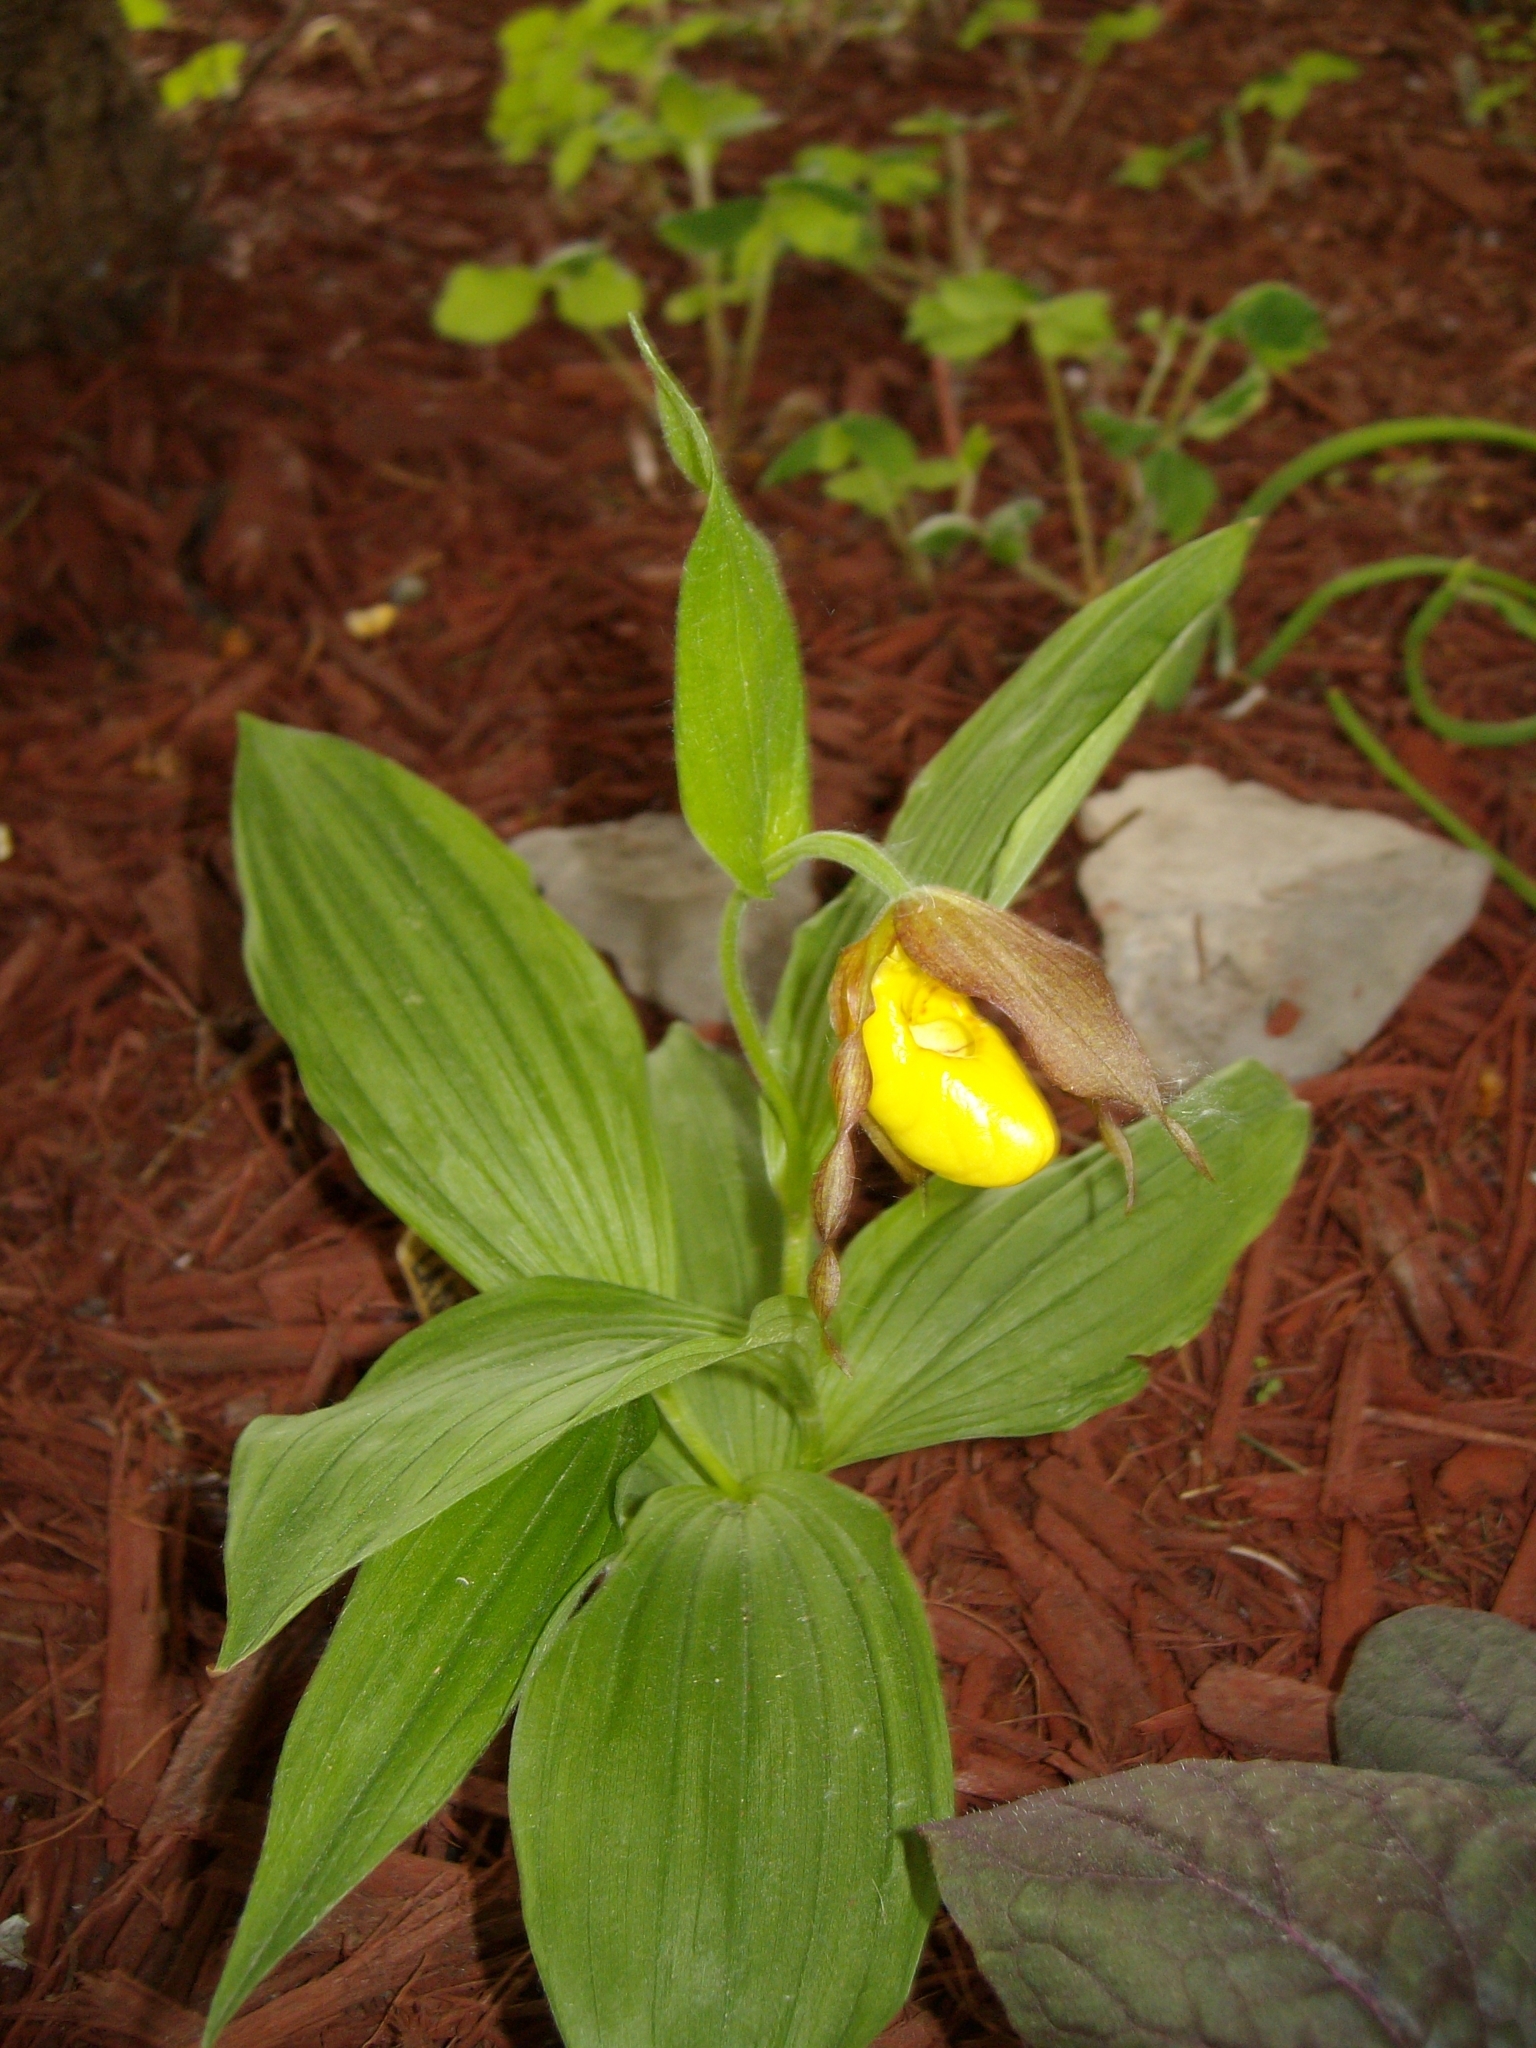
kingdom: Plantae
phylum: Tracheophyta
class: Liliopsida
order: Asparagales
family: Orchidaceae
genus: Cypripedium
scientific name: Cypripedium parviflorum
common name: American yellow lady's-slipper
